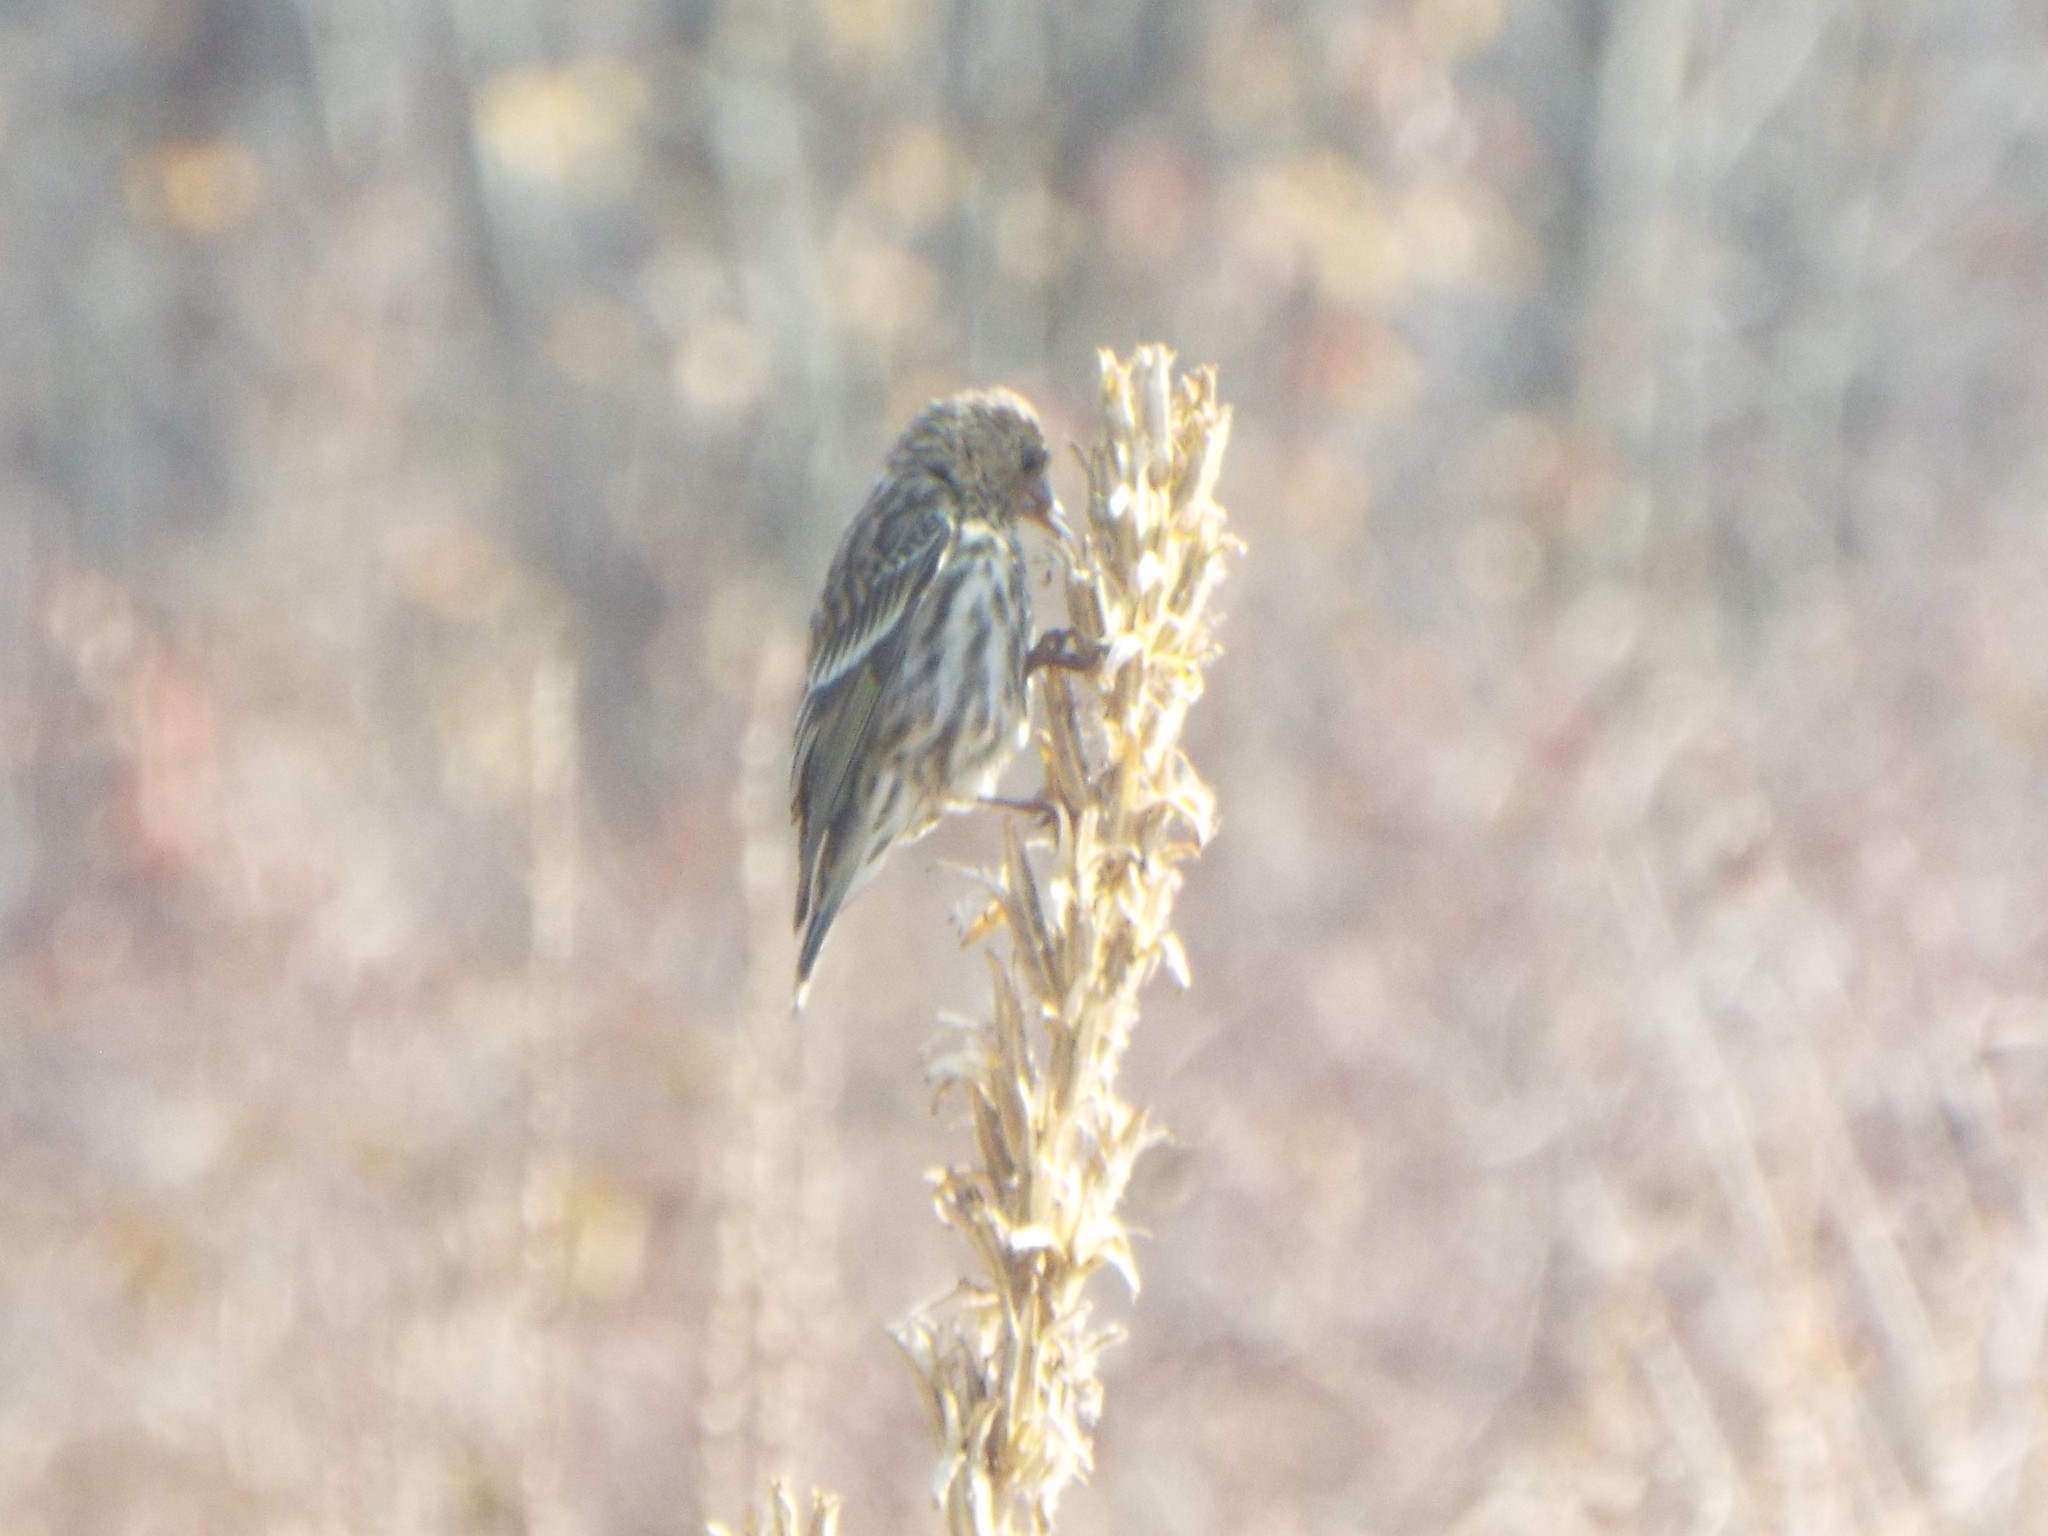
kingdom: Animalia
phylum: Chordata
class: Aves
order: Passeriformes
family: Fringillidae
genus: Spinus
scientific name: Spinus pinus
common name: Pine siskin
